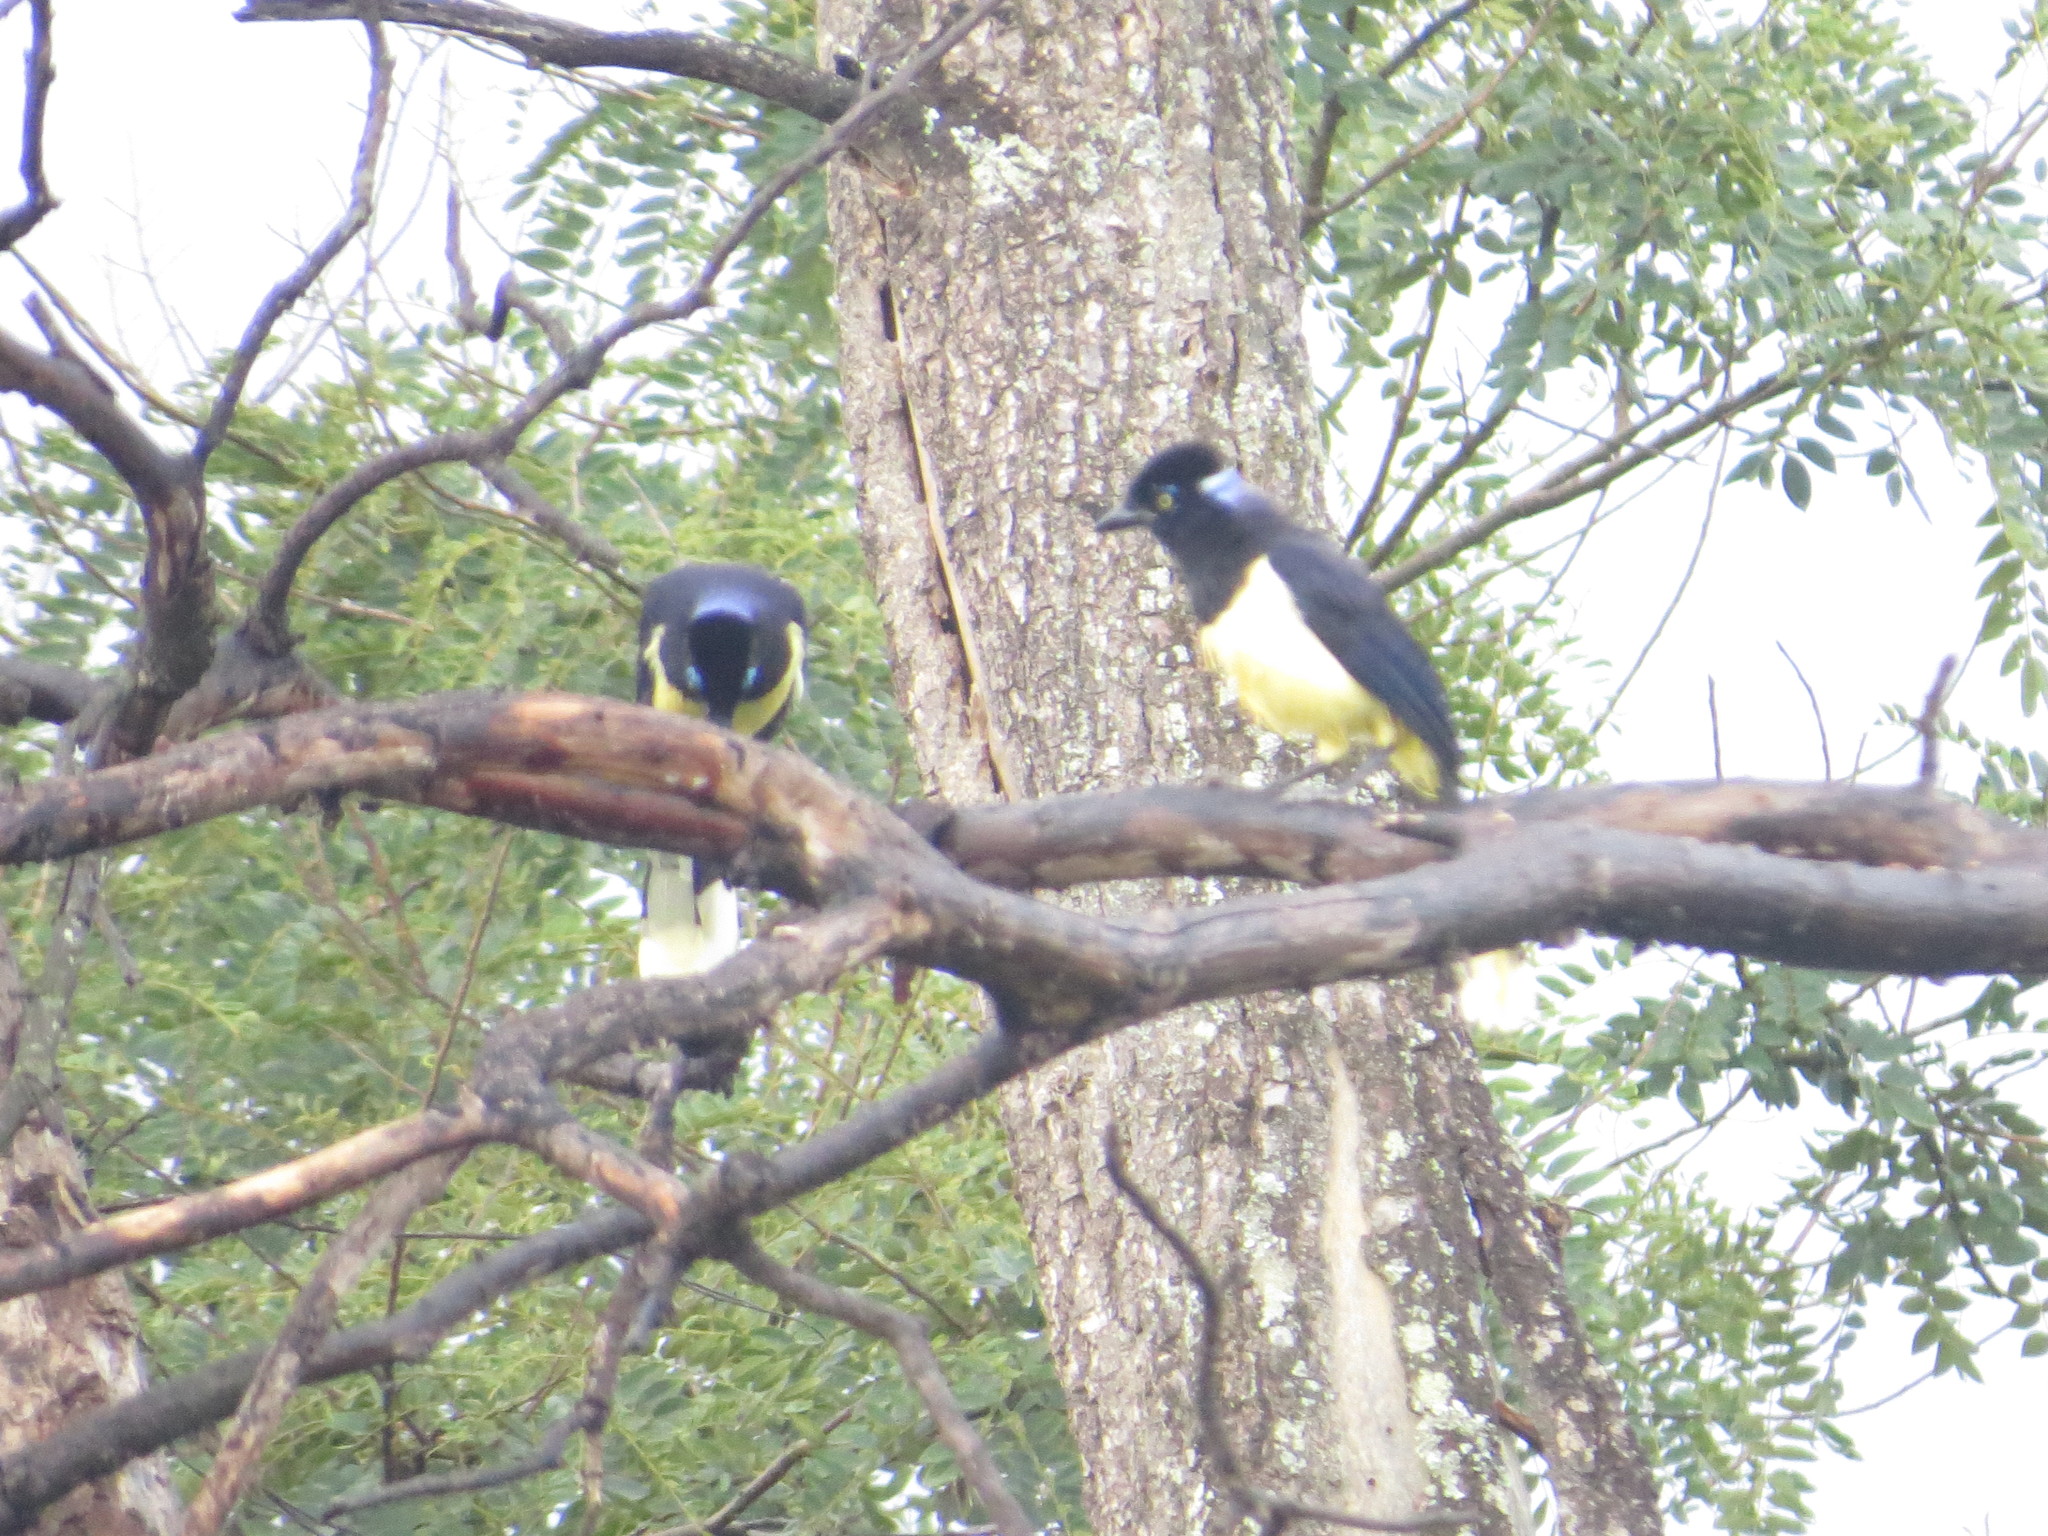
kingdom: Animalia
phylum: Chordata
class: Aves
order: Passeriformes
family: Corvidae
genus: Cyanocorax
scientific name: Cyanocorax chrysops
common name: Plush-crested jay
